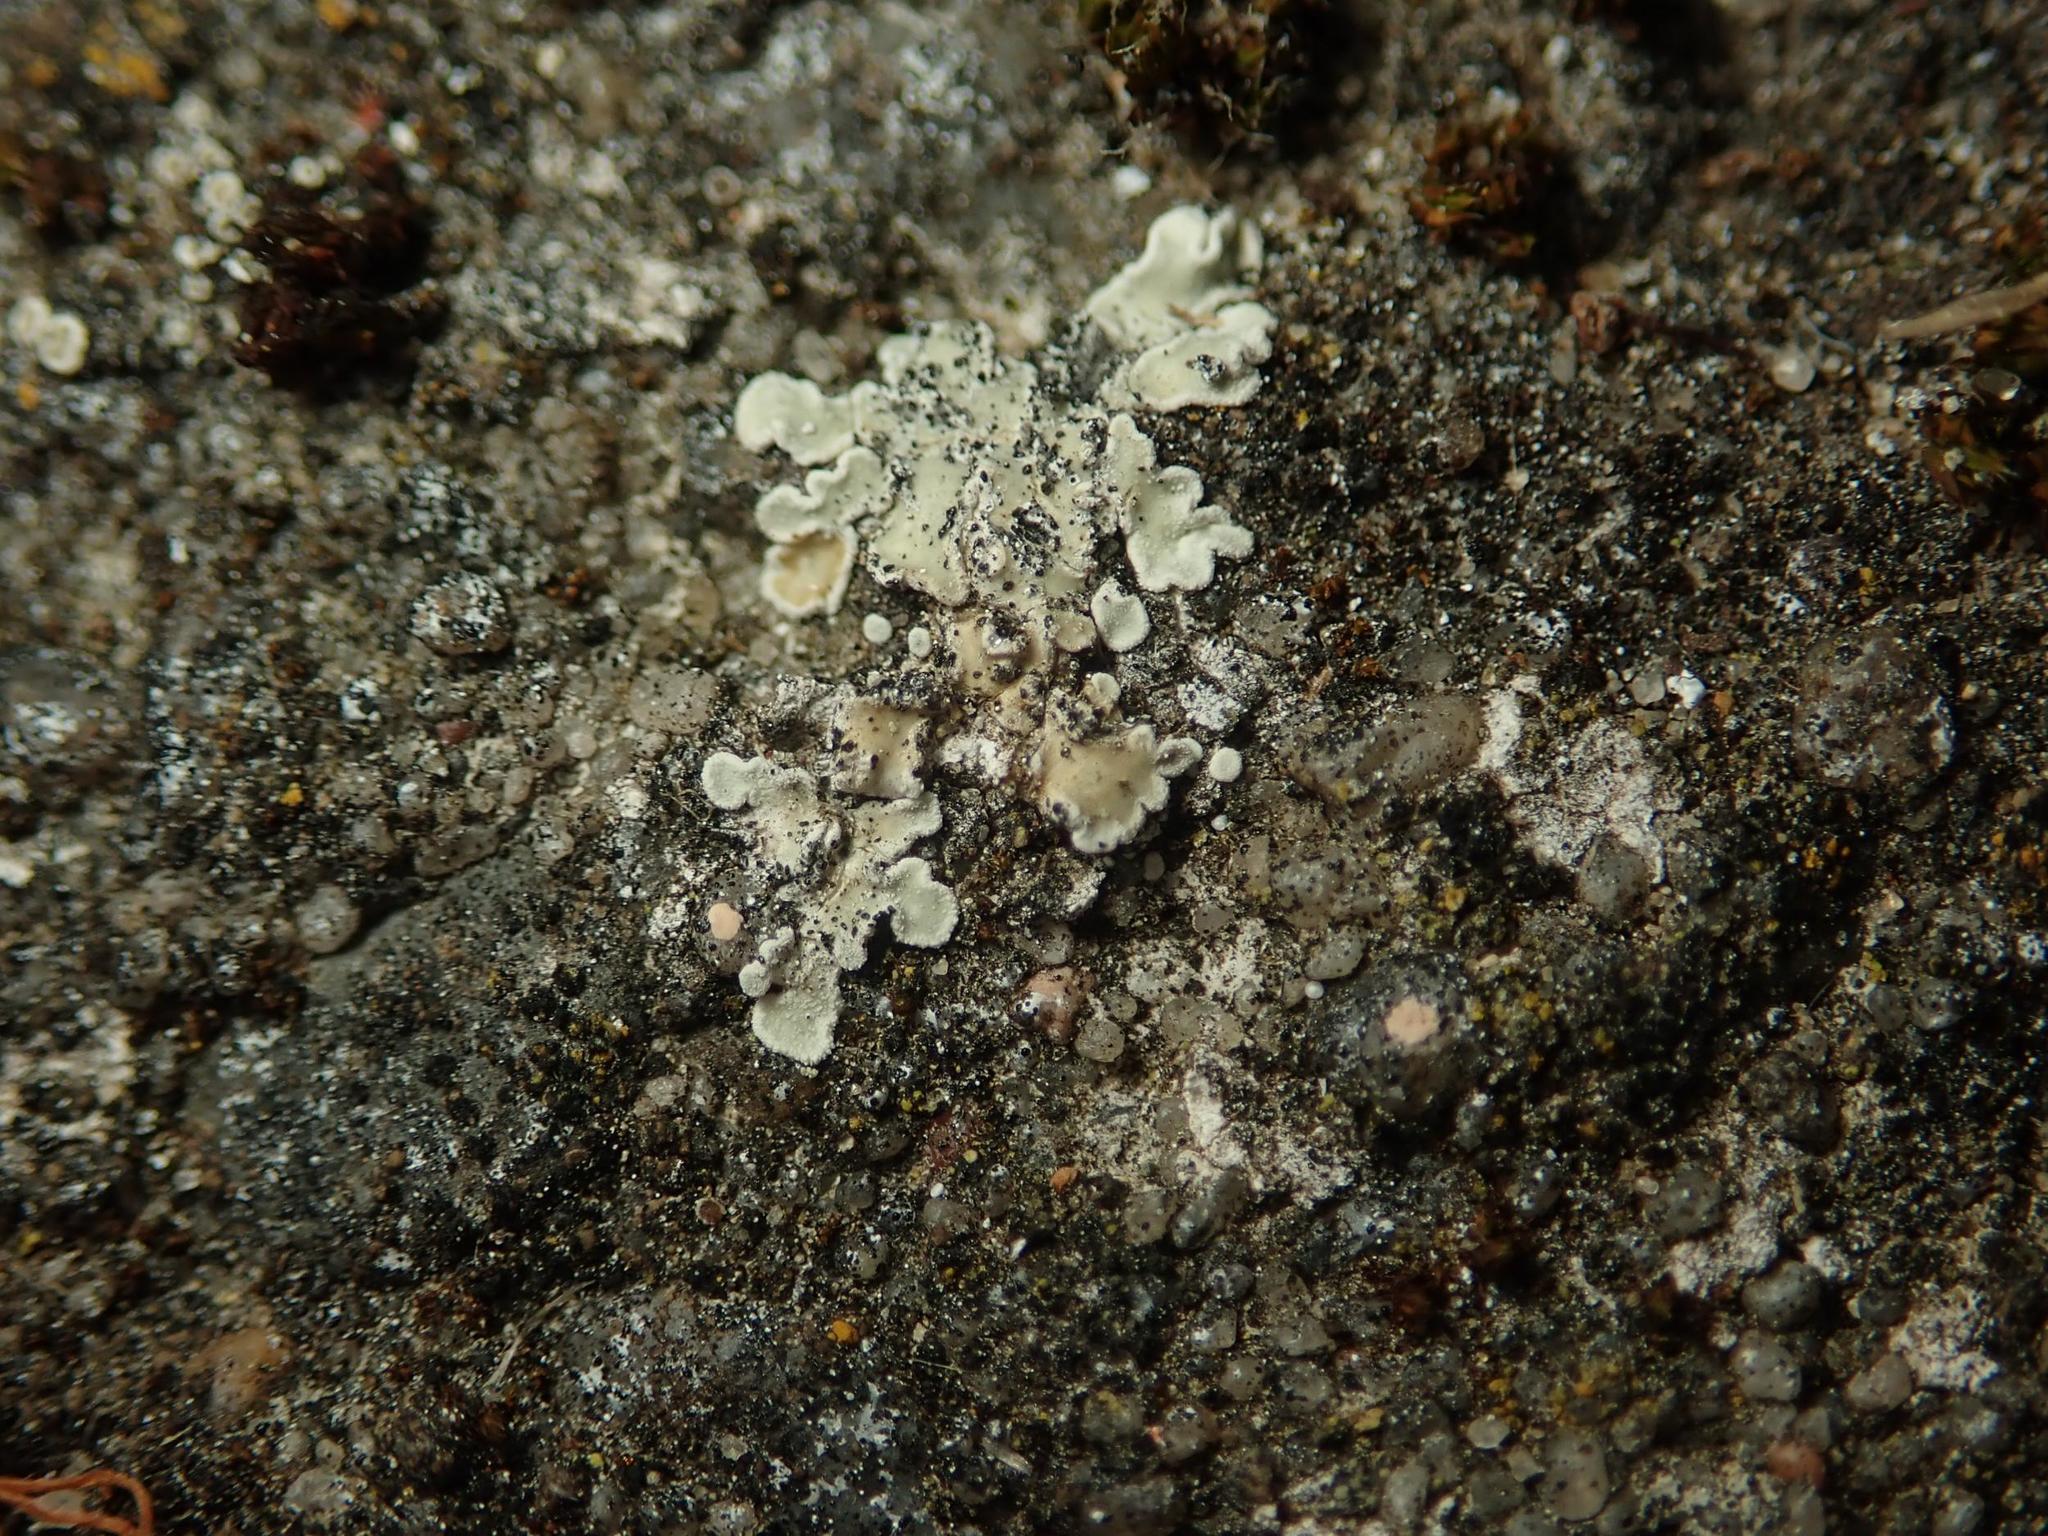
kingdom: Fungi
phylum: Ascomycota
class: Lecanoromycetes
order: Lecanorales
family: Lecanoraceae
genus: Protoparmeliopsis
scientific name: Protoparmeliopsis muralis
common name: Stonewall rim lichen
